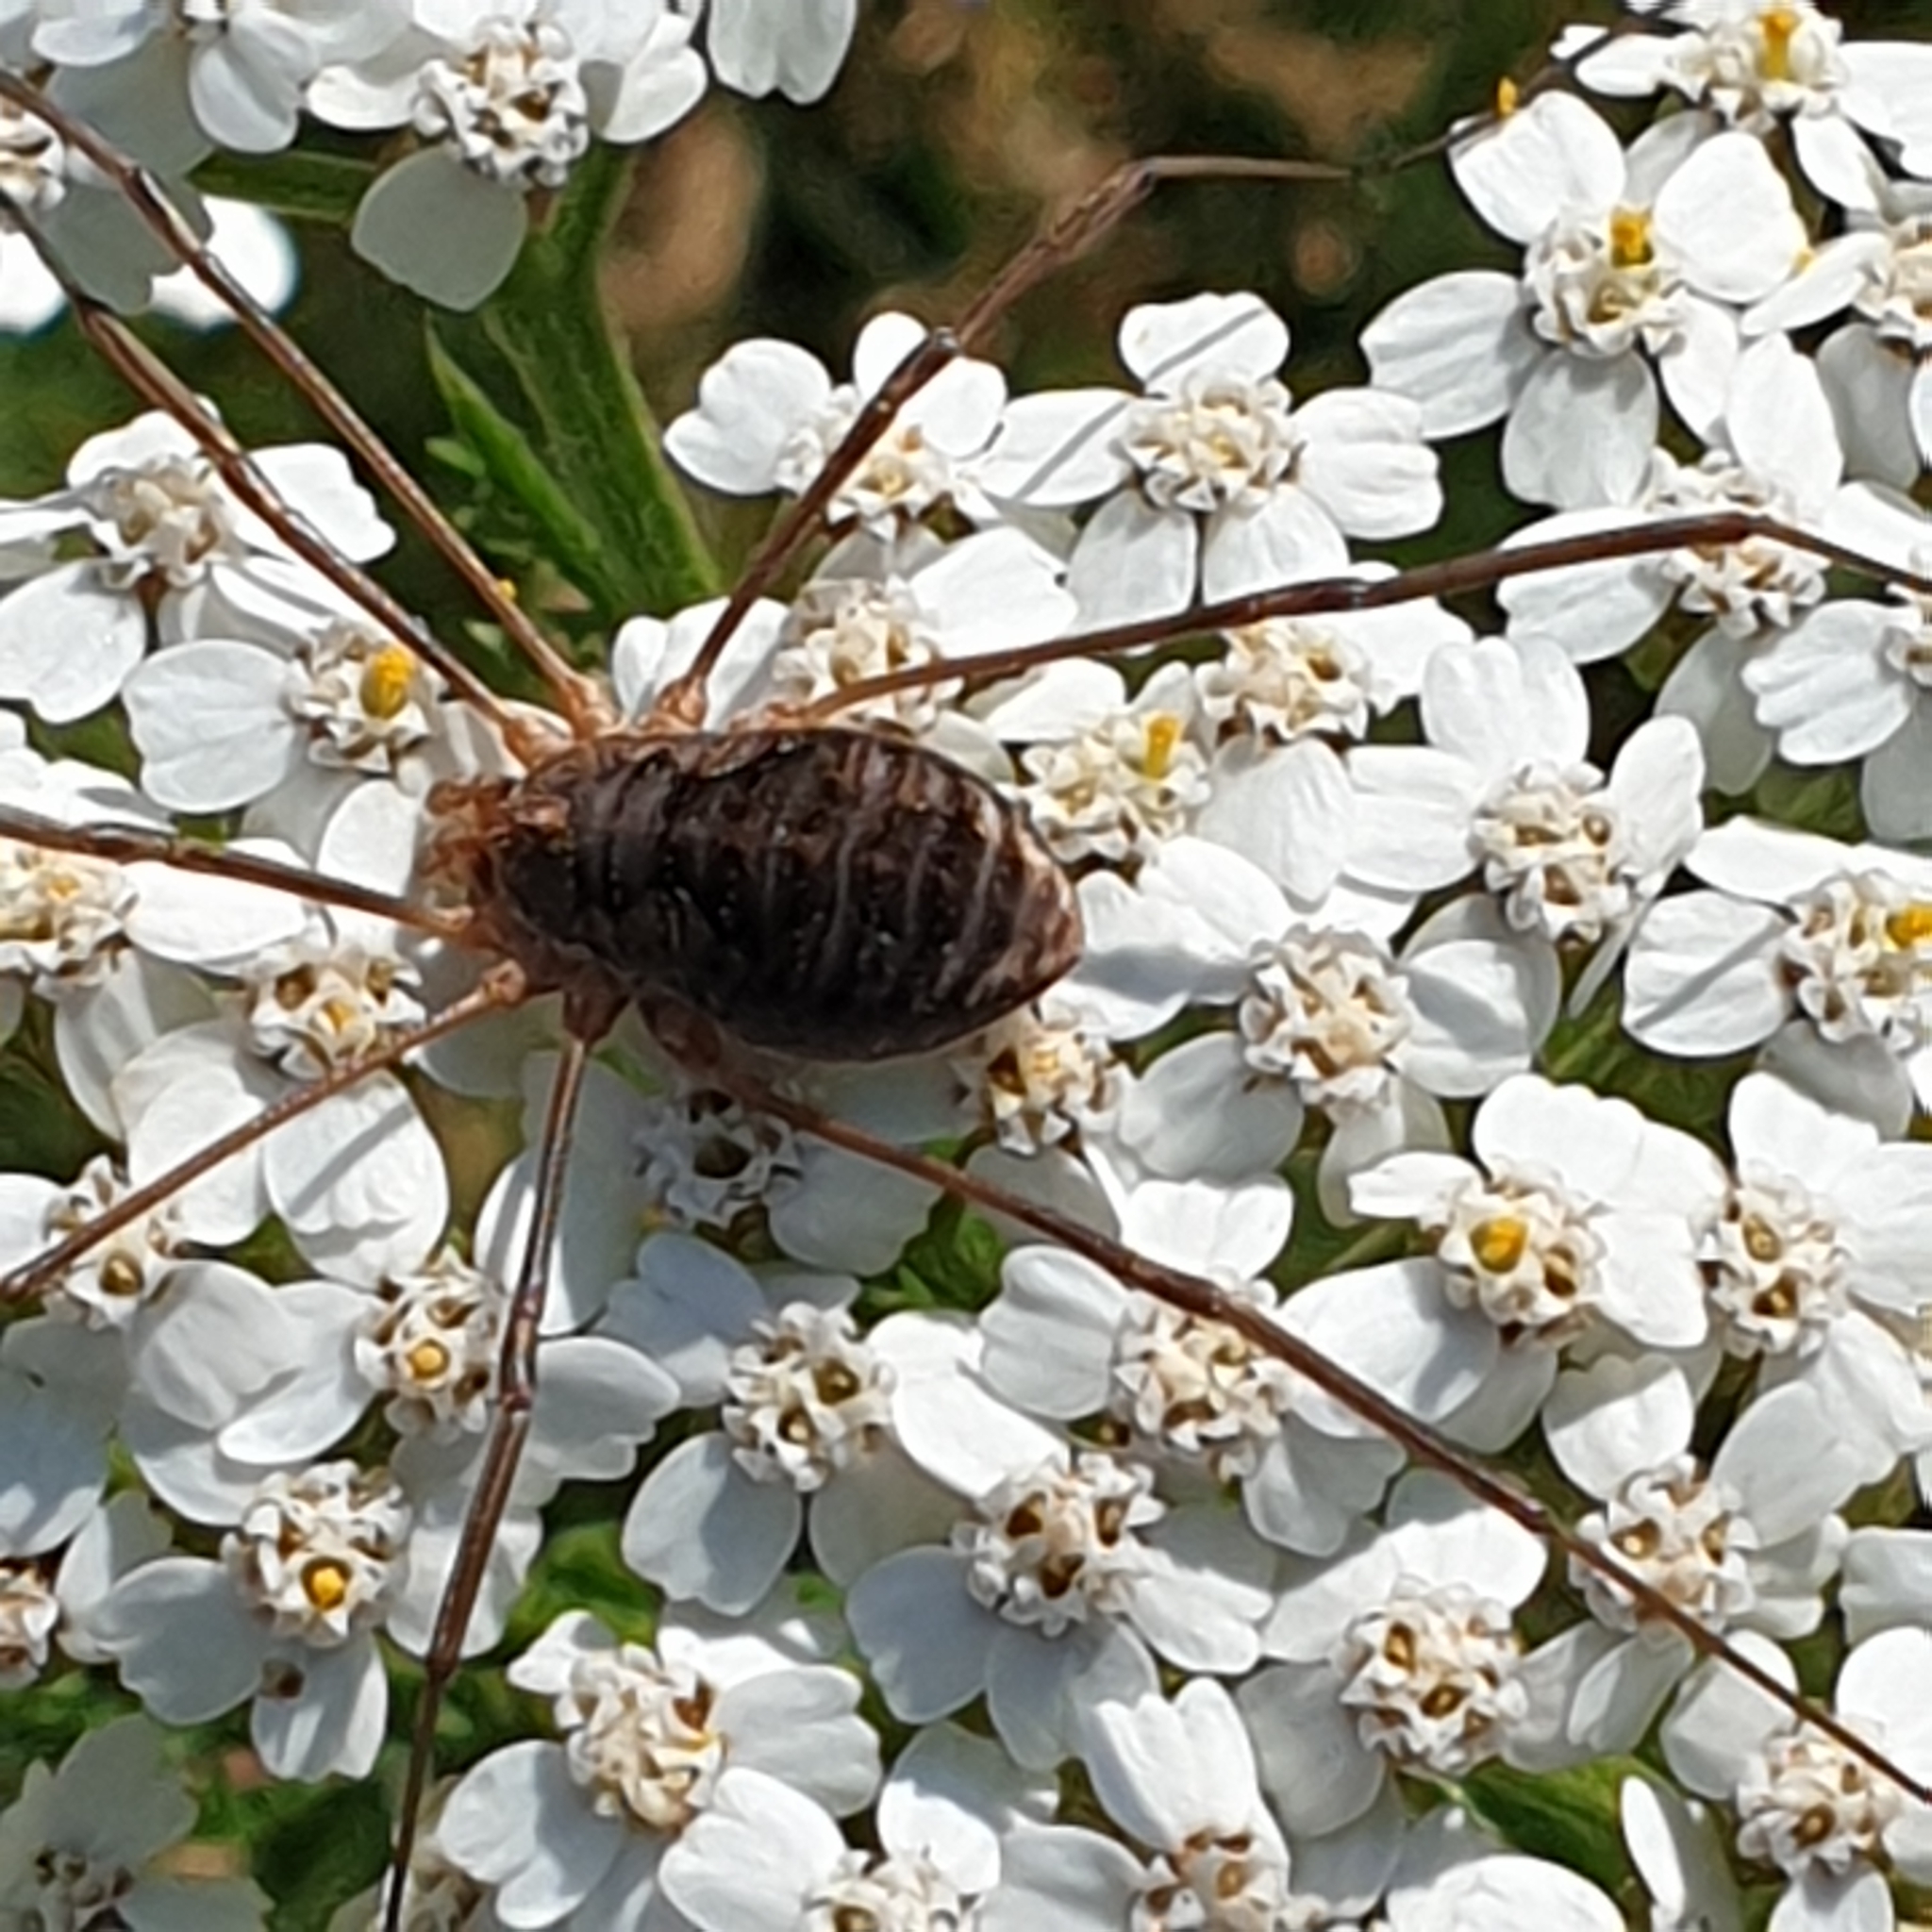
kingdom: Animalia
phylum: Arthropoda
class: Arachnida
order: Opiliones
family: Phalangiidae
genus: Phalangium
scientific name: Phalangium opilio
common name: Daddy longleg
